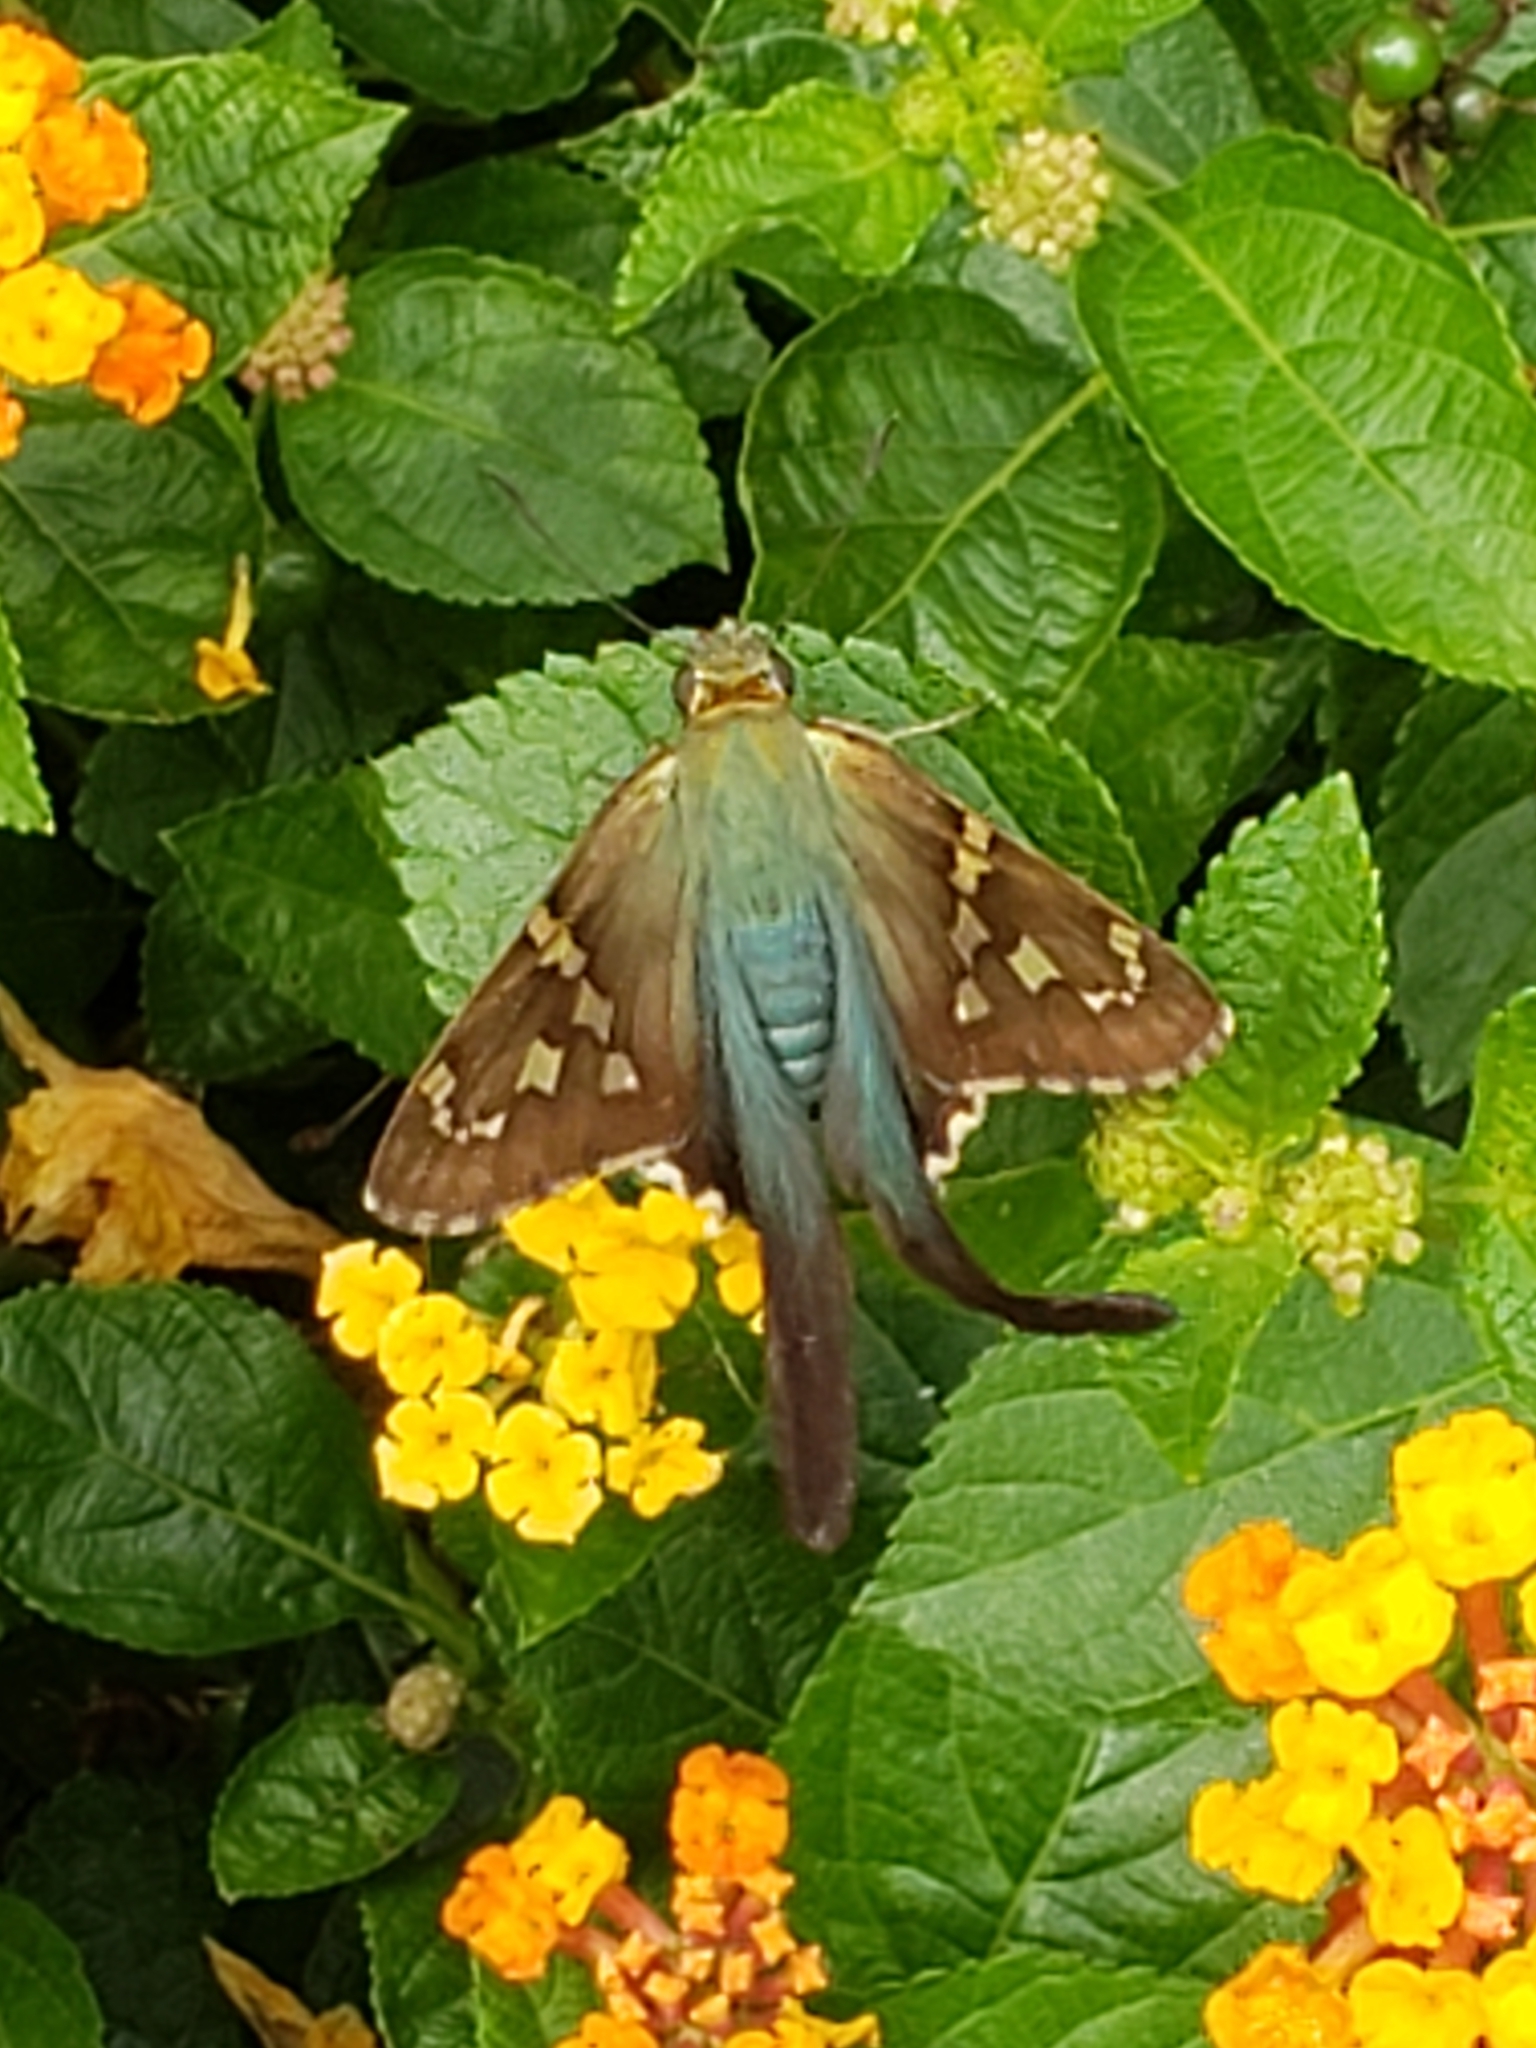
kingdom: Animalia
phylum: Arthropoda
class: Insecta
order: Lepidoptera
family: Hesperiidae
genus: Urbanus
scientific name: Urbanus proteus
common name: Long-tailed skipper
